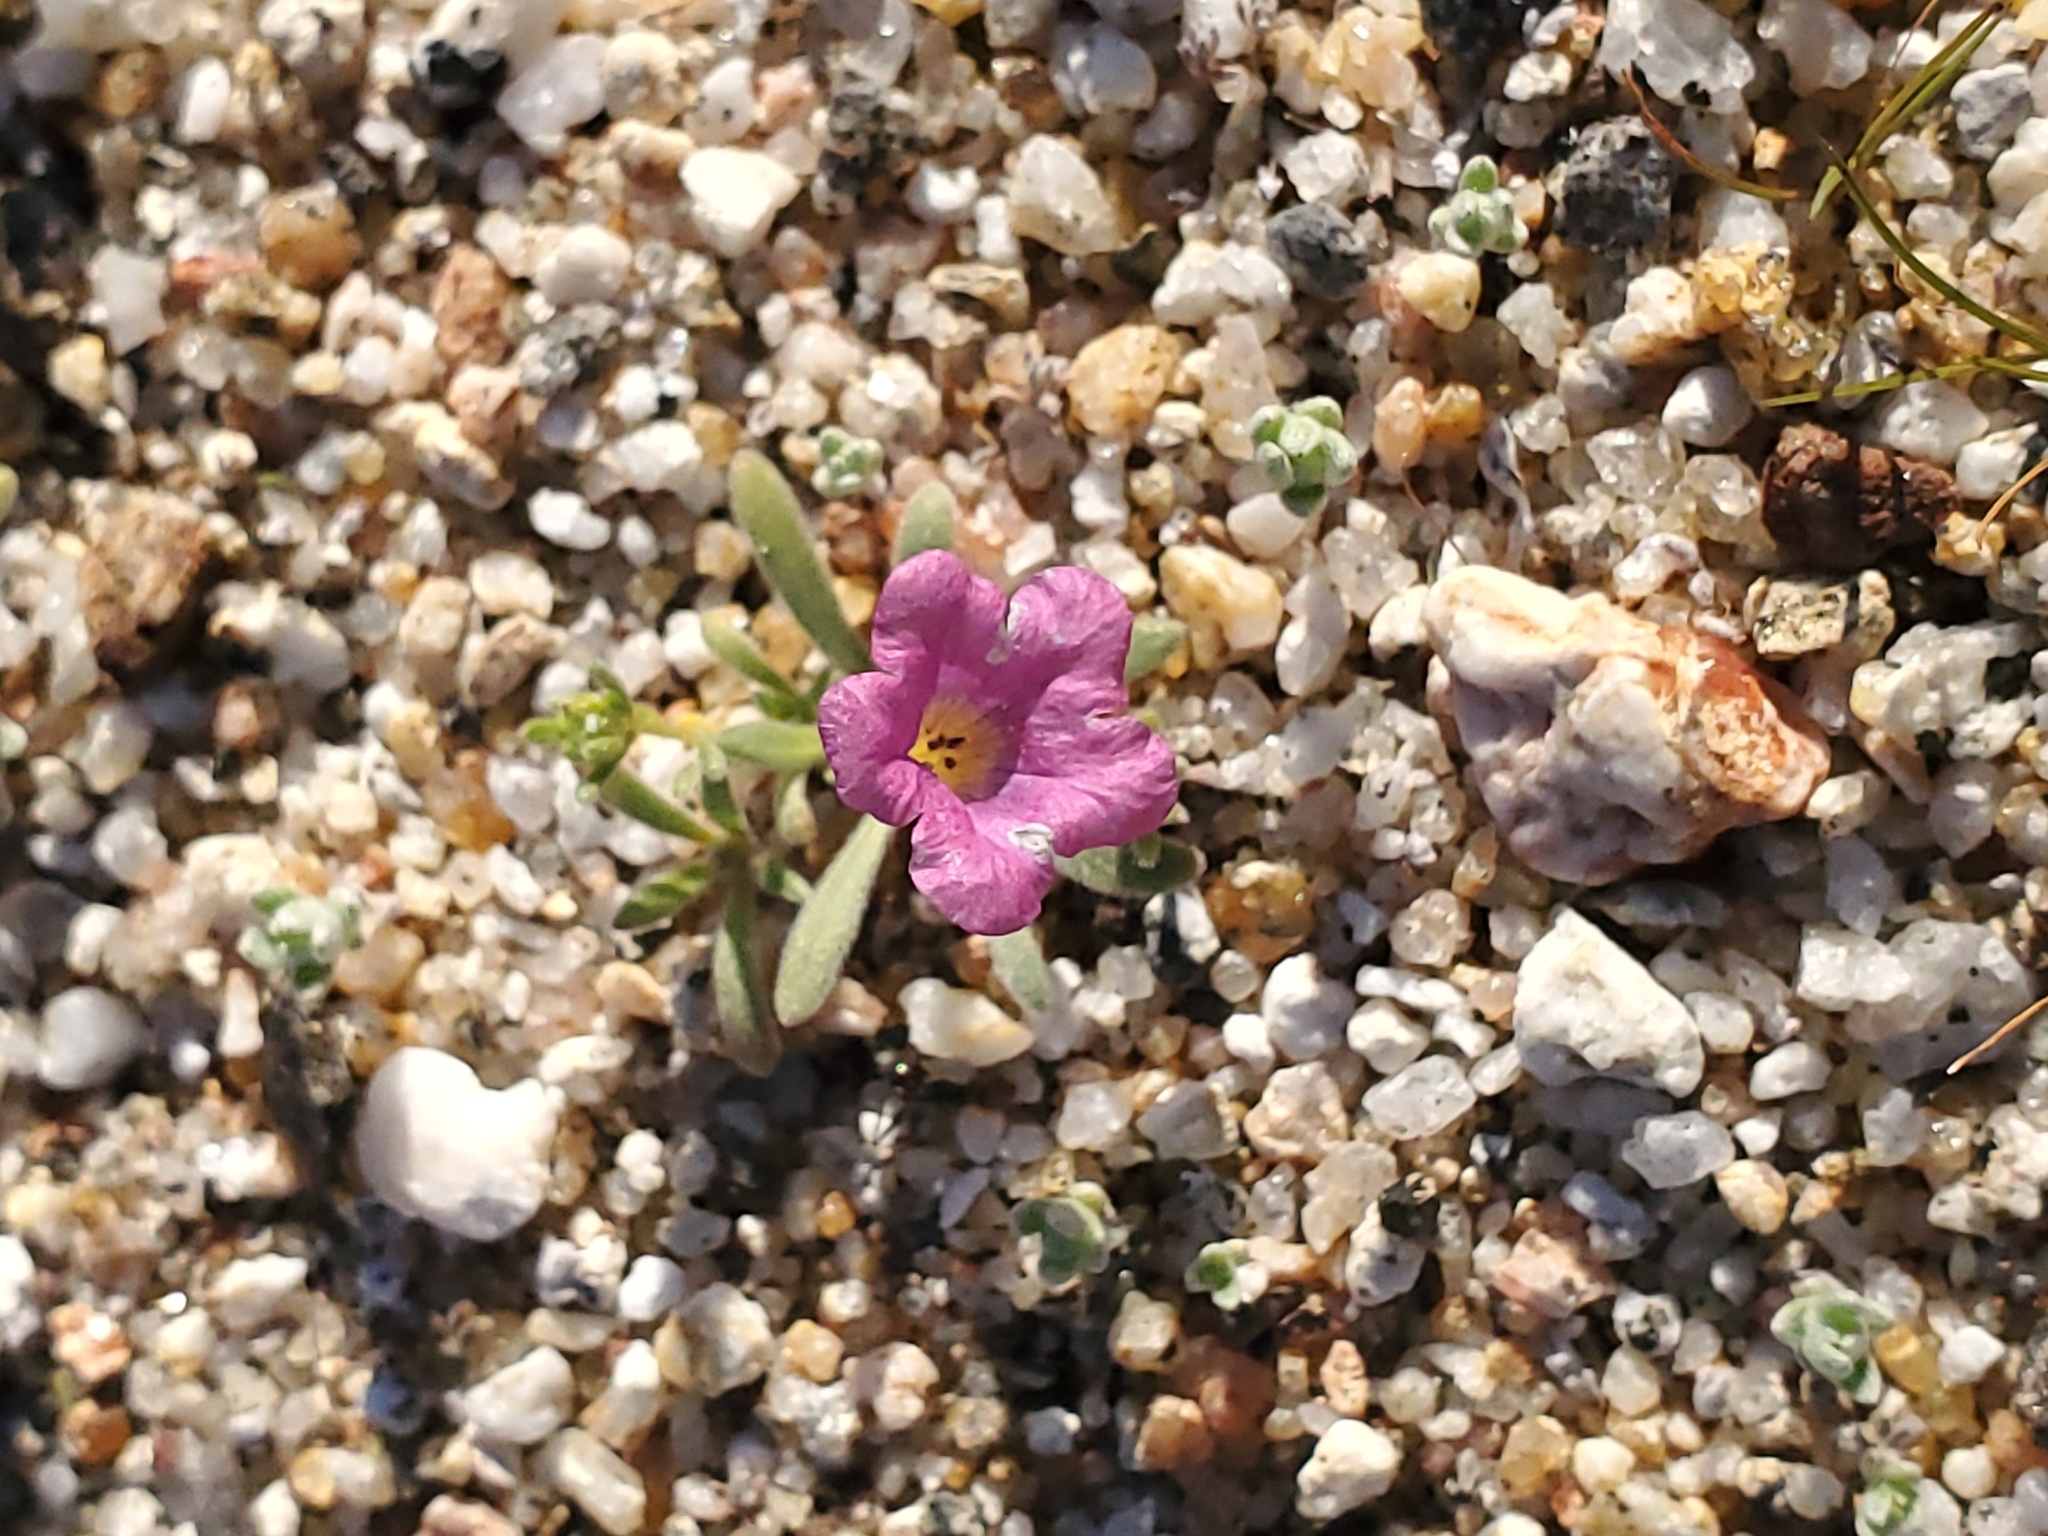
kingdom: Plantae
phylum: Tracheophyta
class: Magnoliopsida
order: Boraginales
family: Namaceae
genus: Nama
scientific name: Nama demissa
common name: Leafy nama
